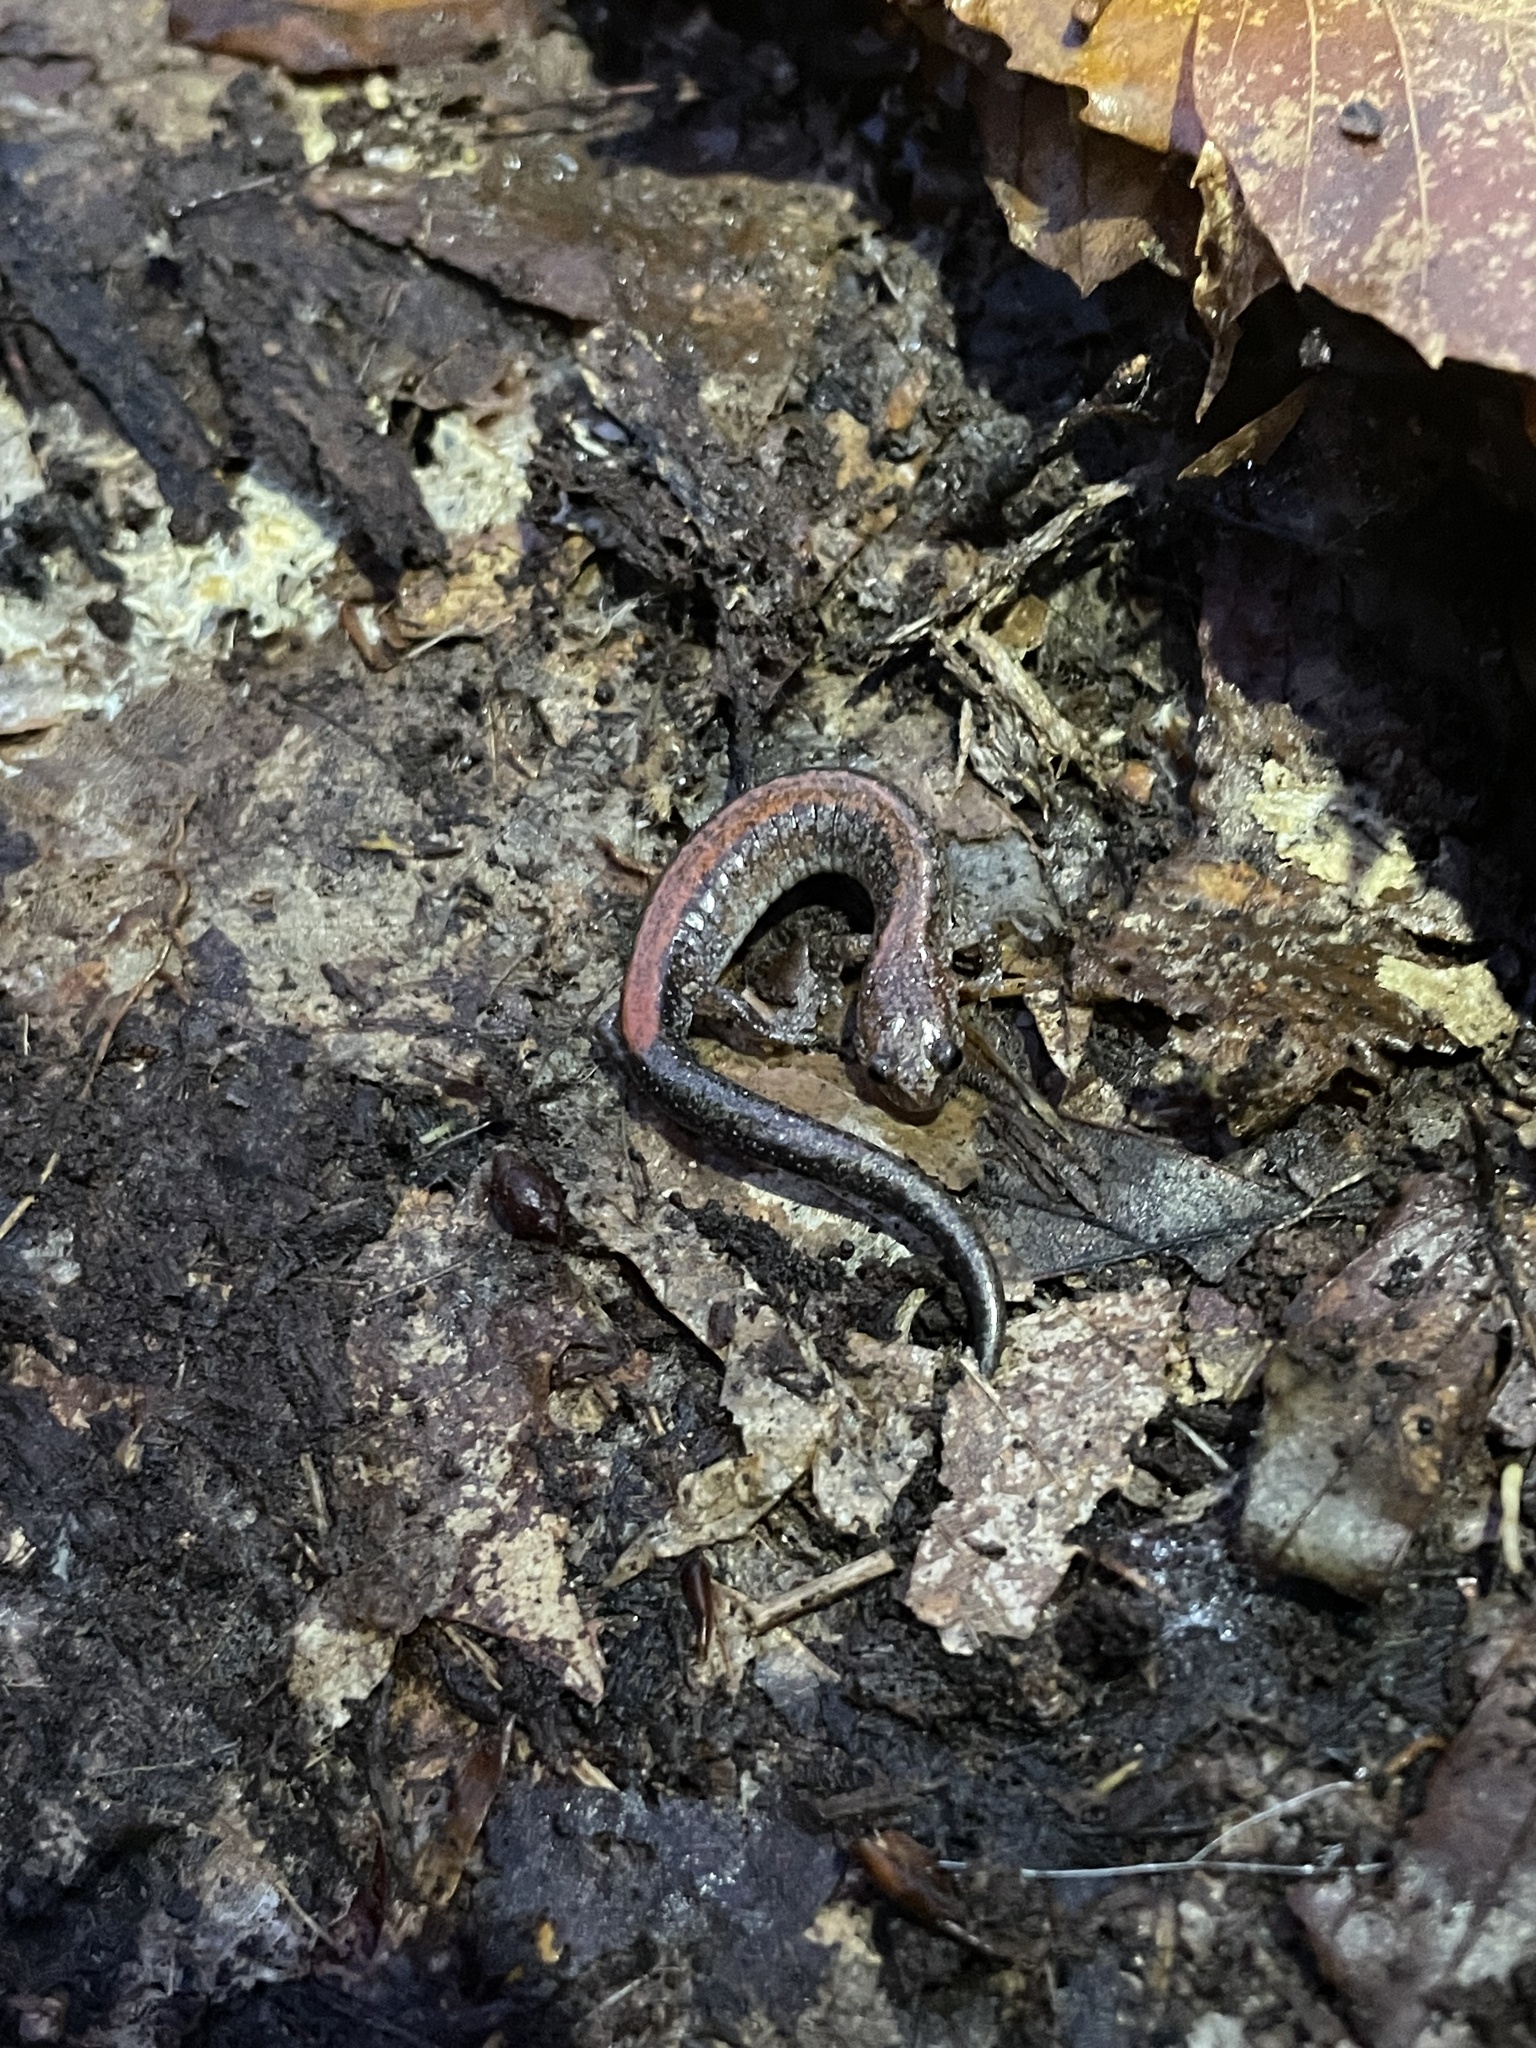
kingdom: Animalia
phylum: Chordata
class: Amphibia
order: Caudata
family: Plethodontidae
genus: Plethodon
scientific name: Plethodon cinereus
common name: Redback salamander
